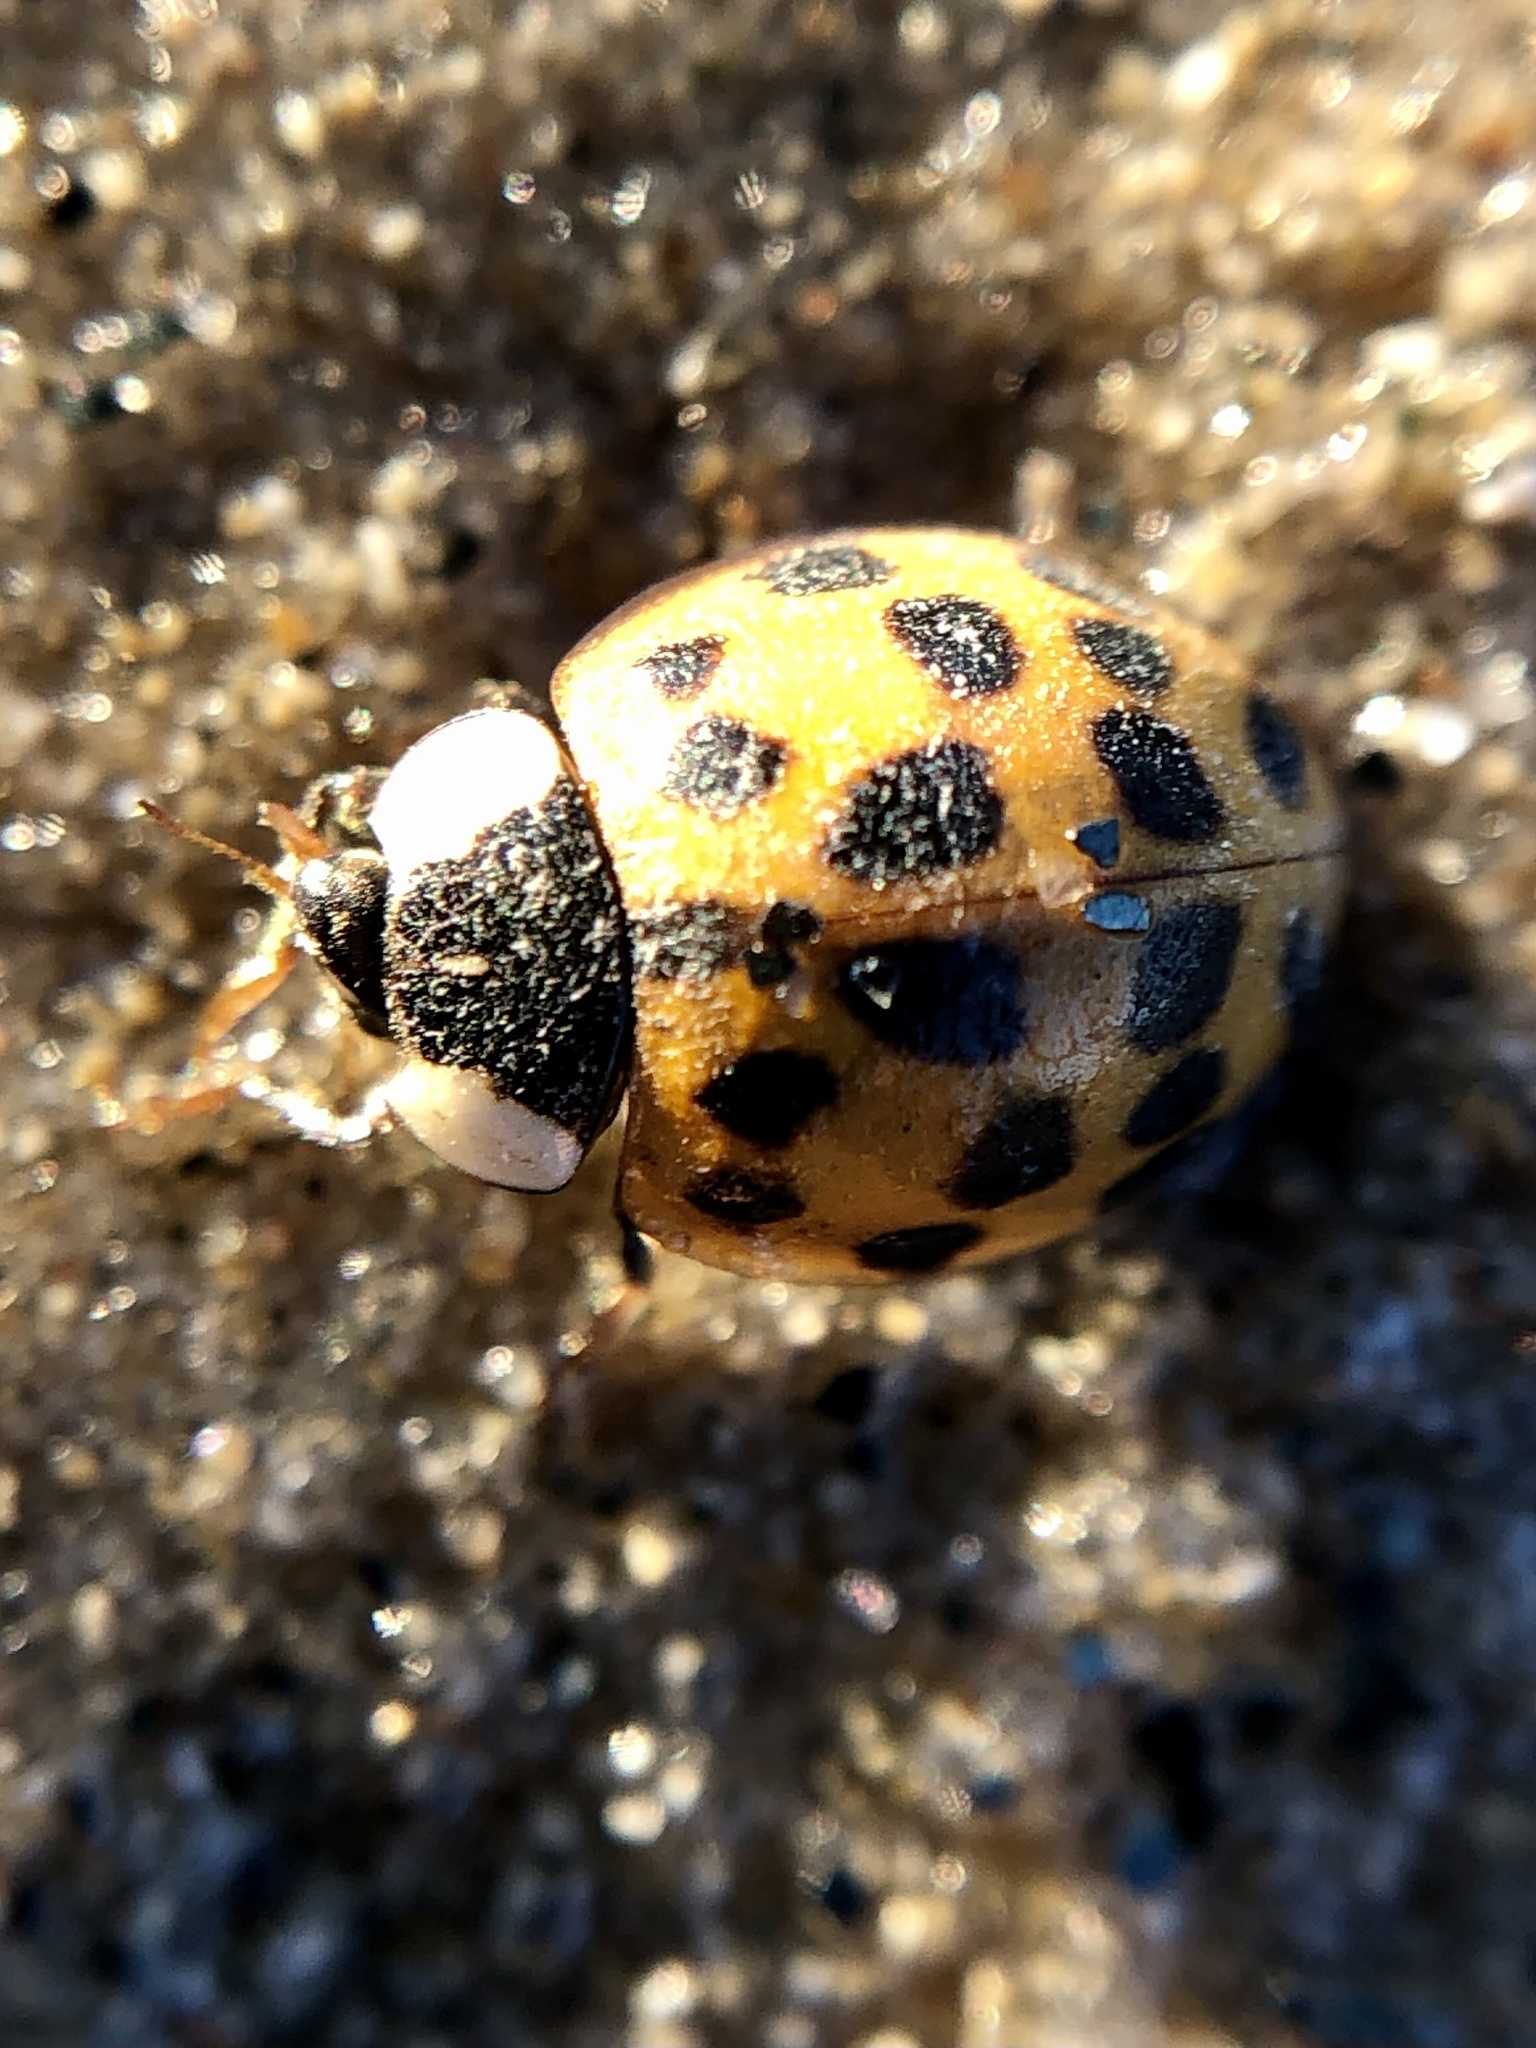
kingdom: Animalia
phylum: Arthropoda
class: Insecta
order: Coleoptera
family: Coccinellidae
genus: Harmonia
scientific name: Harmonia axyridis
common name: Harlequin ladybird
